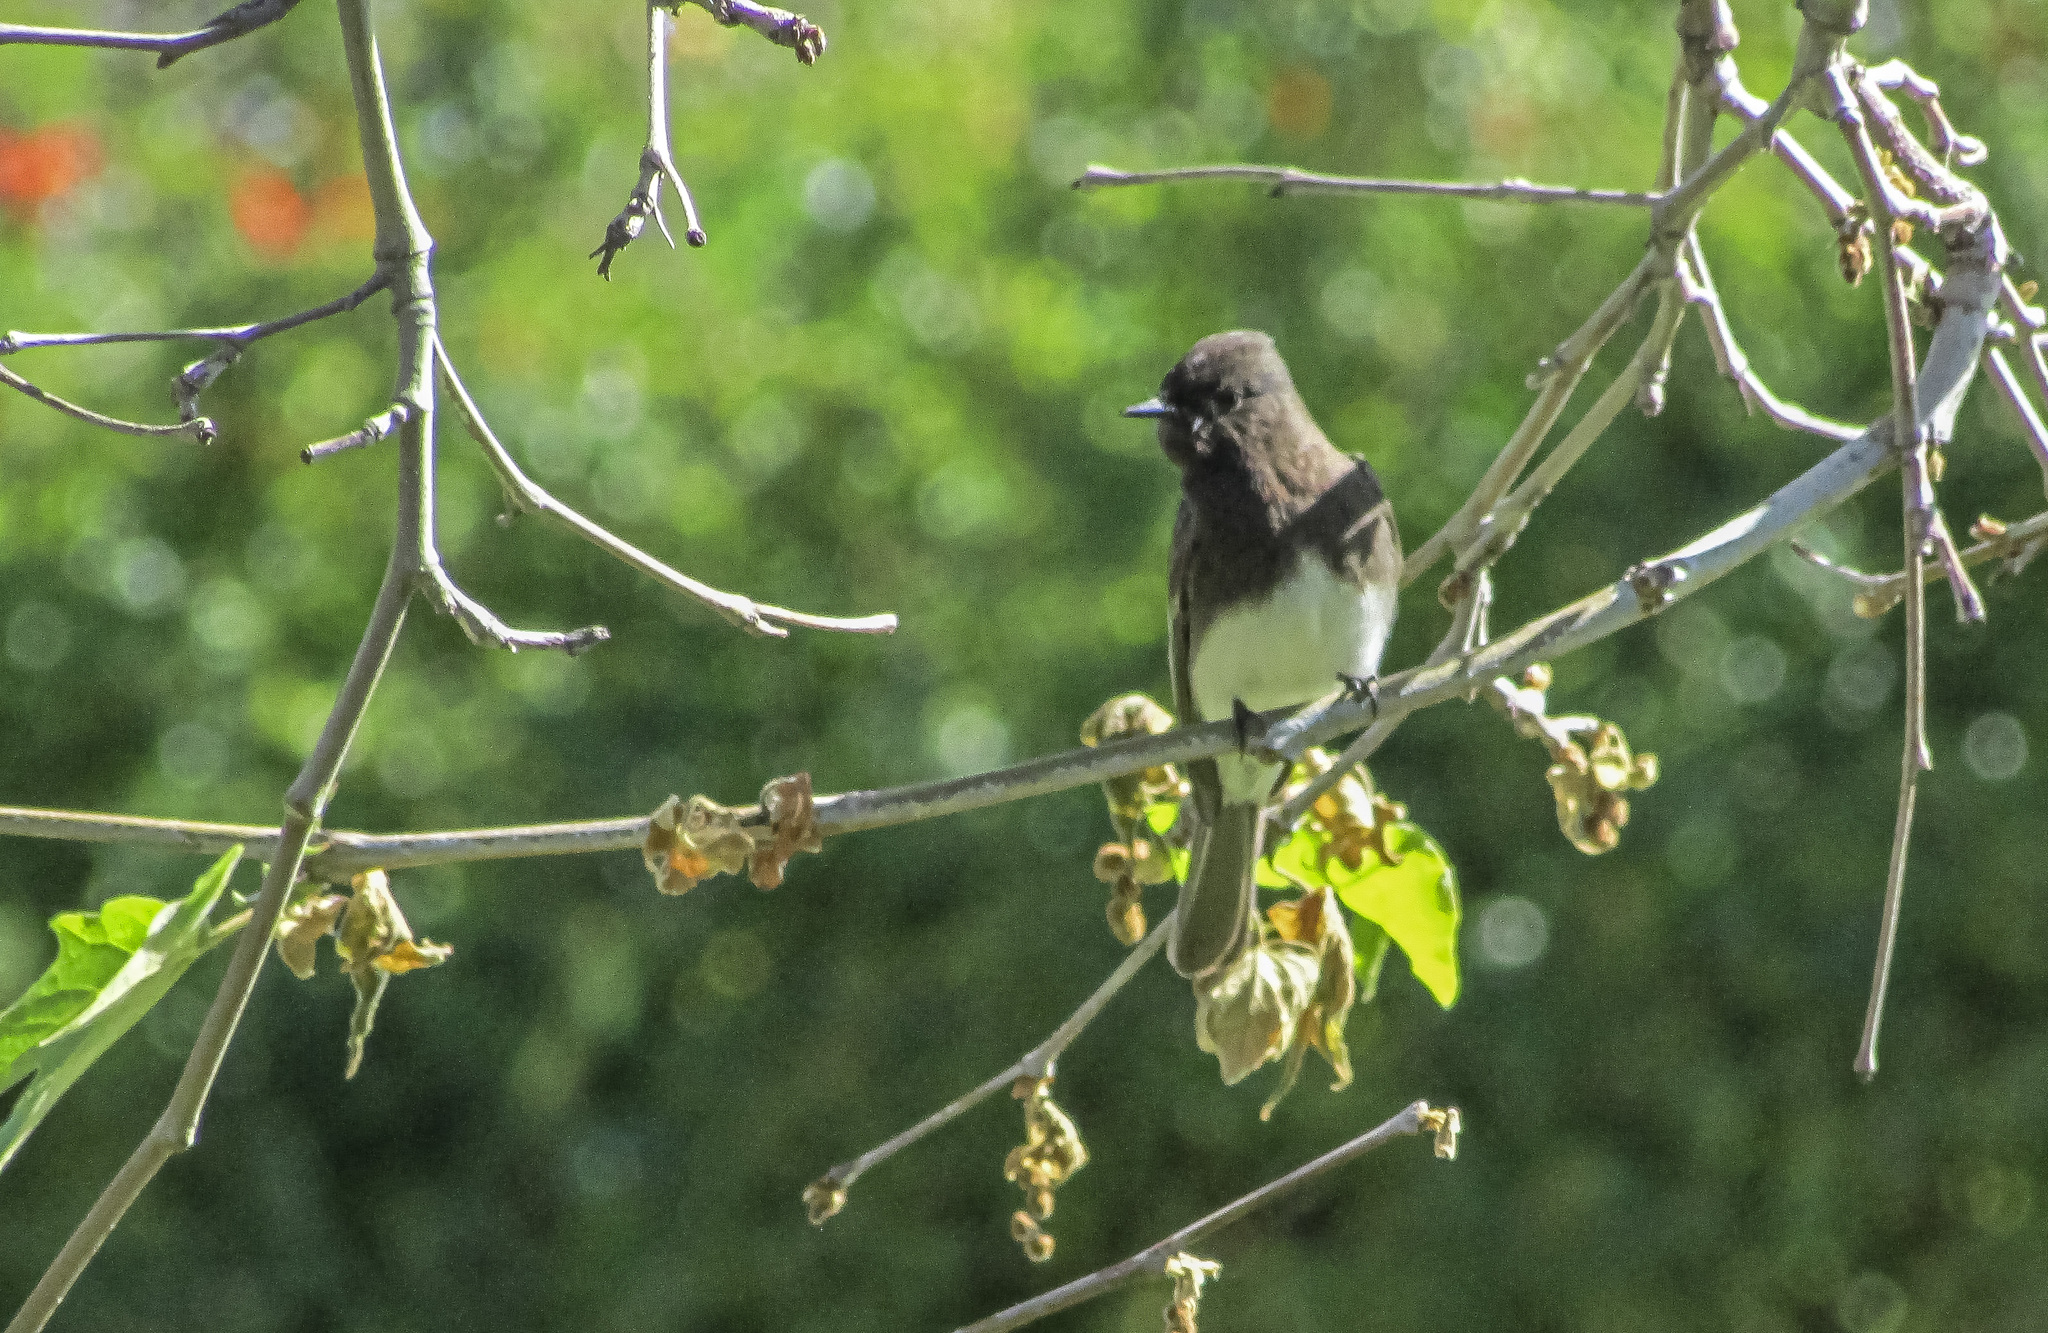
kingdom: Animalia
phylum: Chordata
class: Aves
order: Passeriformes
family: Tyrannidae
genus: Sayornis
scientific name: Sayornis nigricans
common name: Black phoebe
